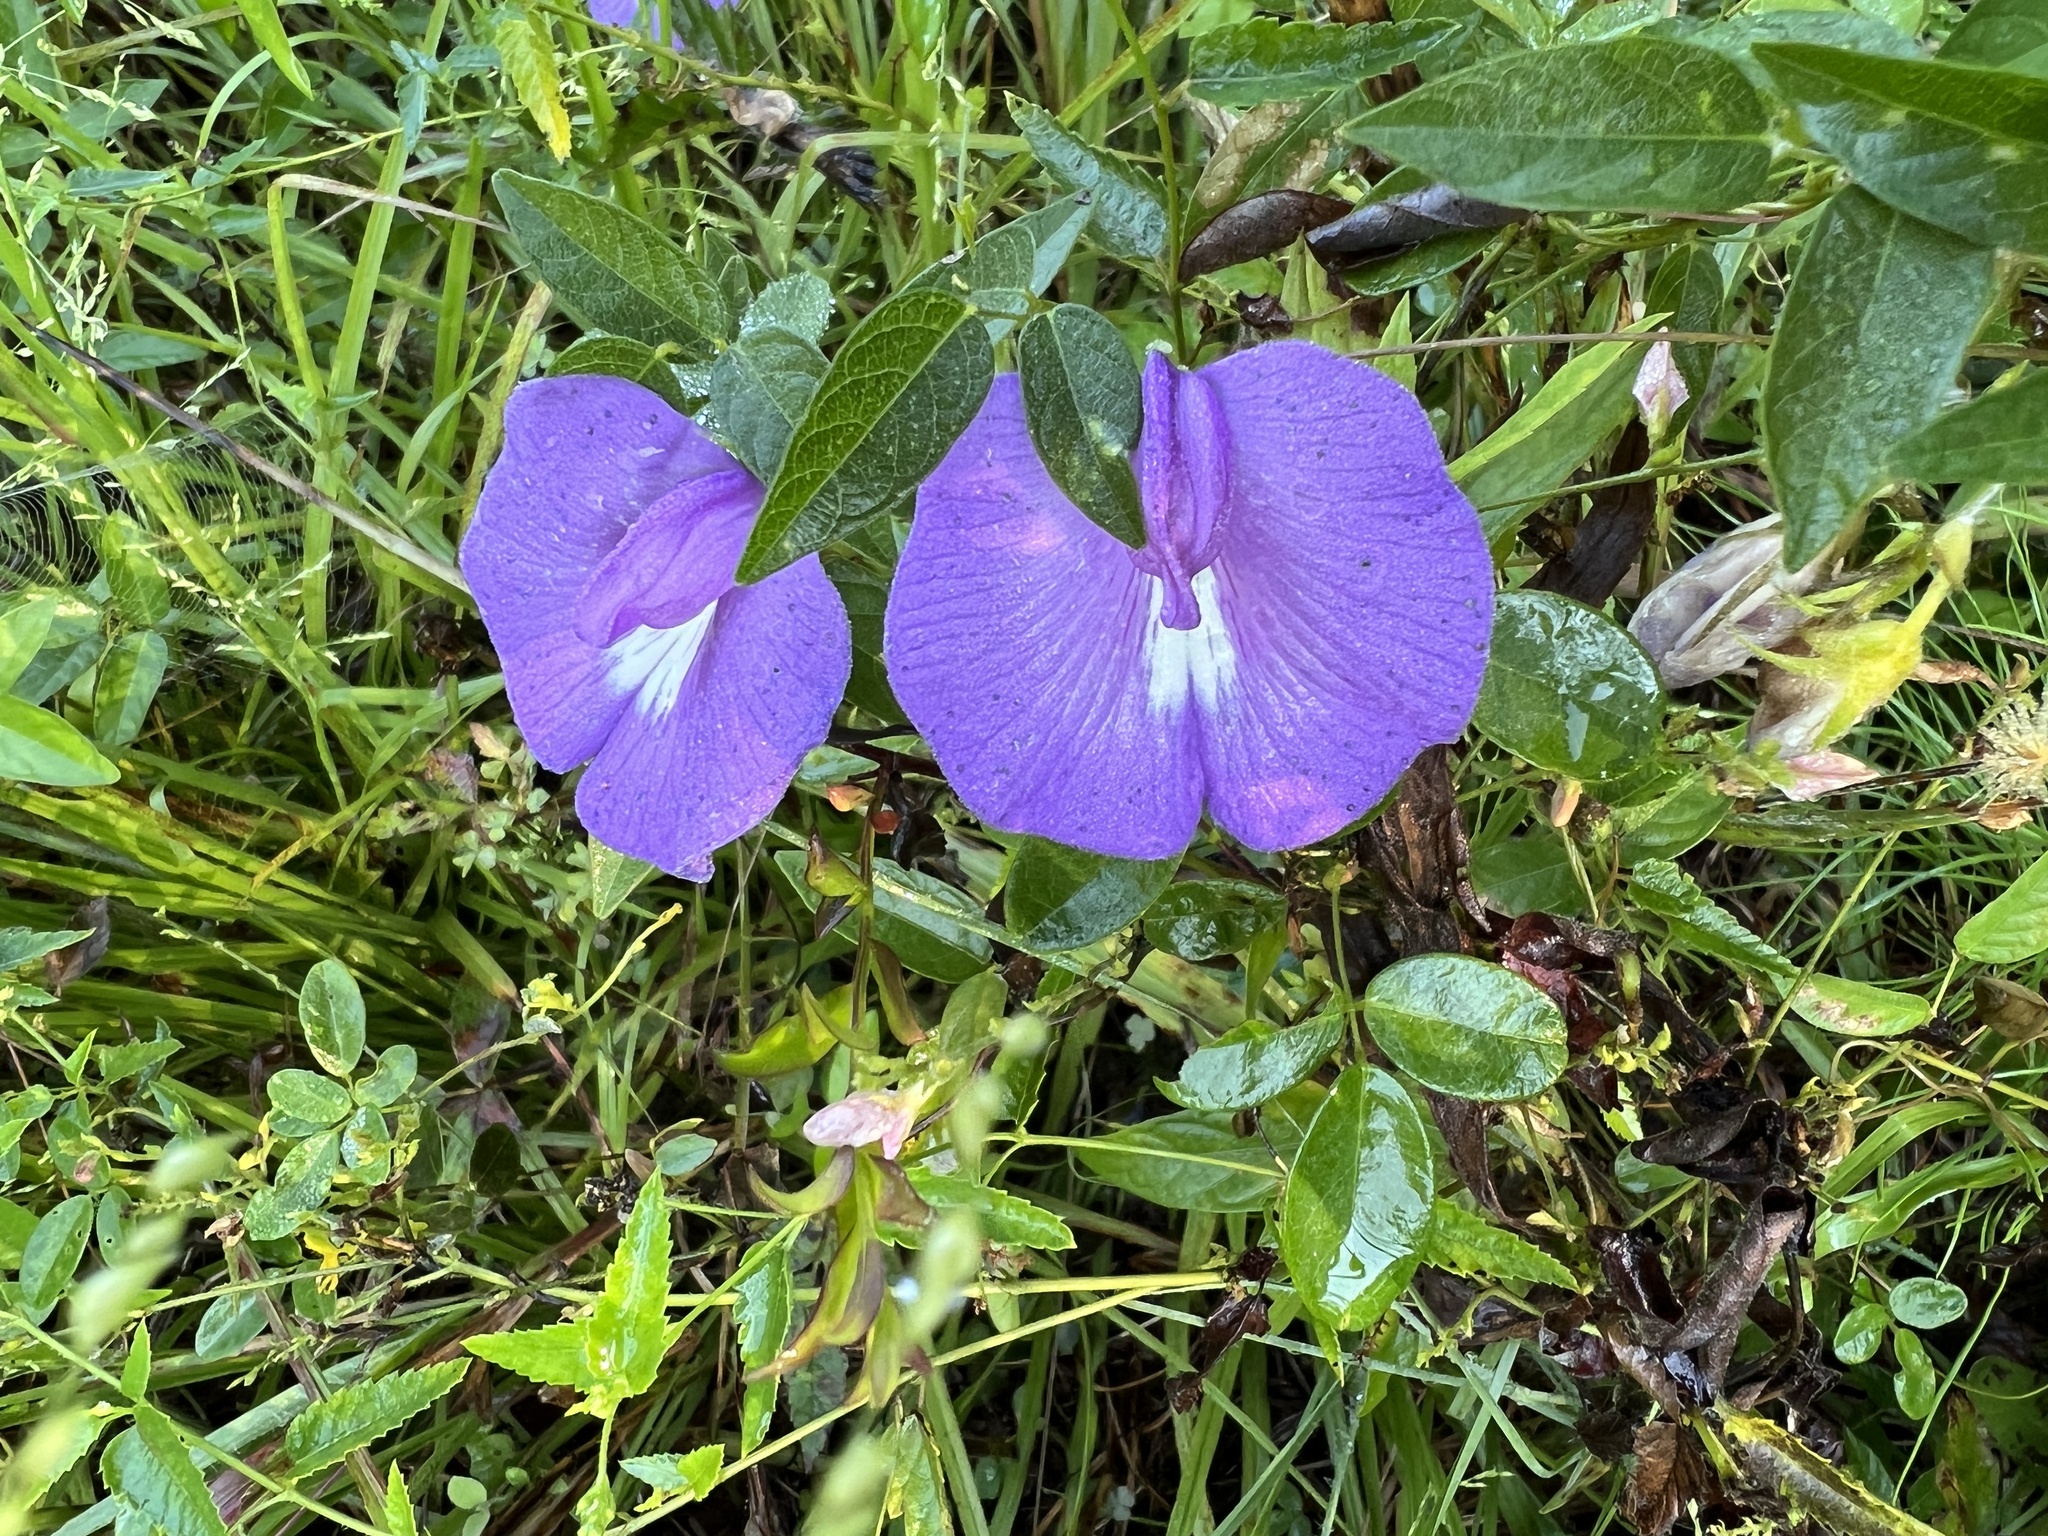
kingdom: Plantae
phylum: Tracheophyta
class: Magnoliopsida
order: Fabales
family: Fabaceae
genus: Centrosema
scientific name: Centrosema virginianum
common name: Butterfly-pea
